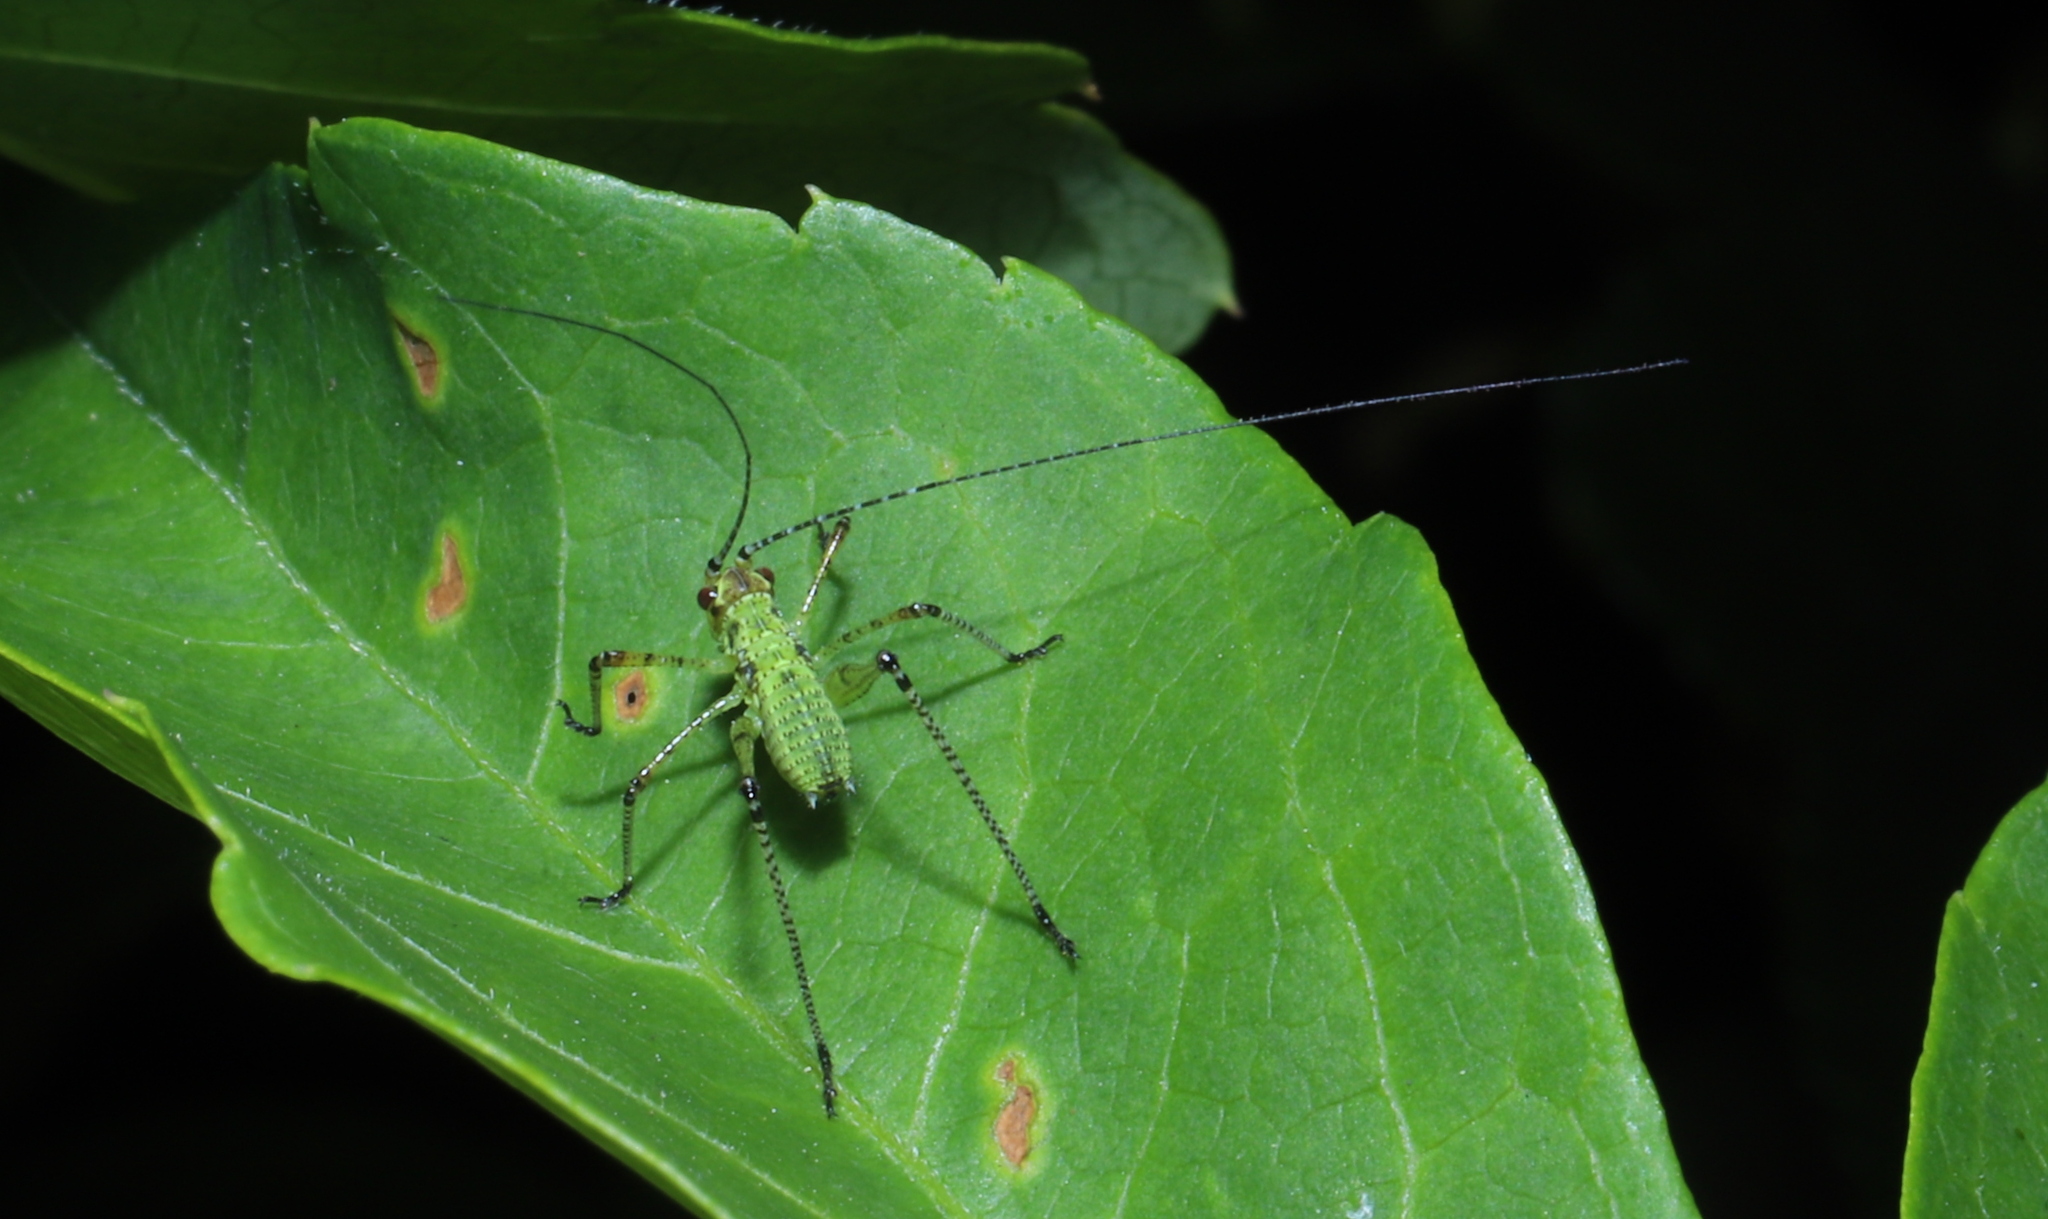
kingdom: Animalia
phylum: Arthropoda
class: Insecta
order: Orthoptera
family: Tettigoniidae
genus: Phaneroptera
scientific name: Phaneroptera nana
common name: Southern sickle bush-cricket
